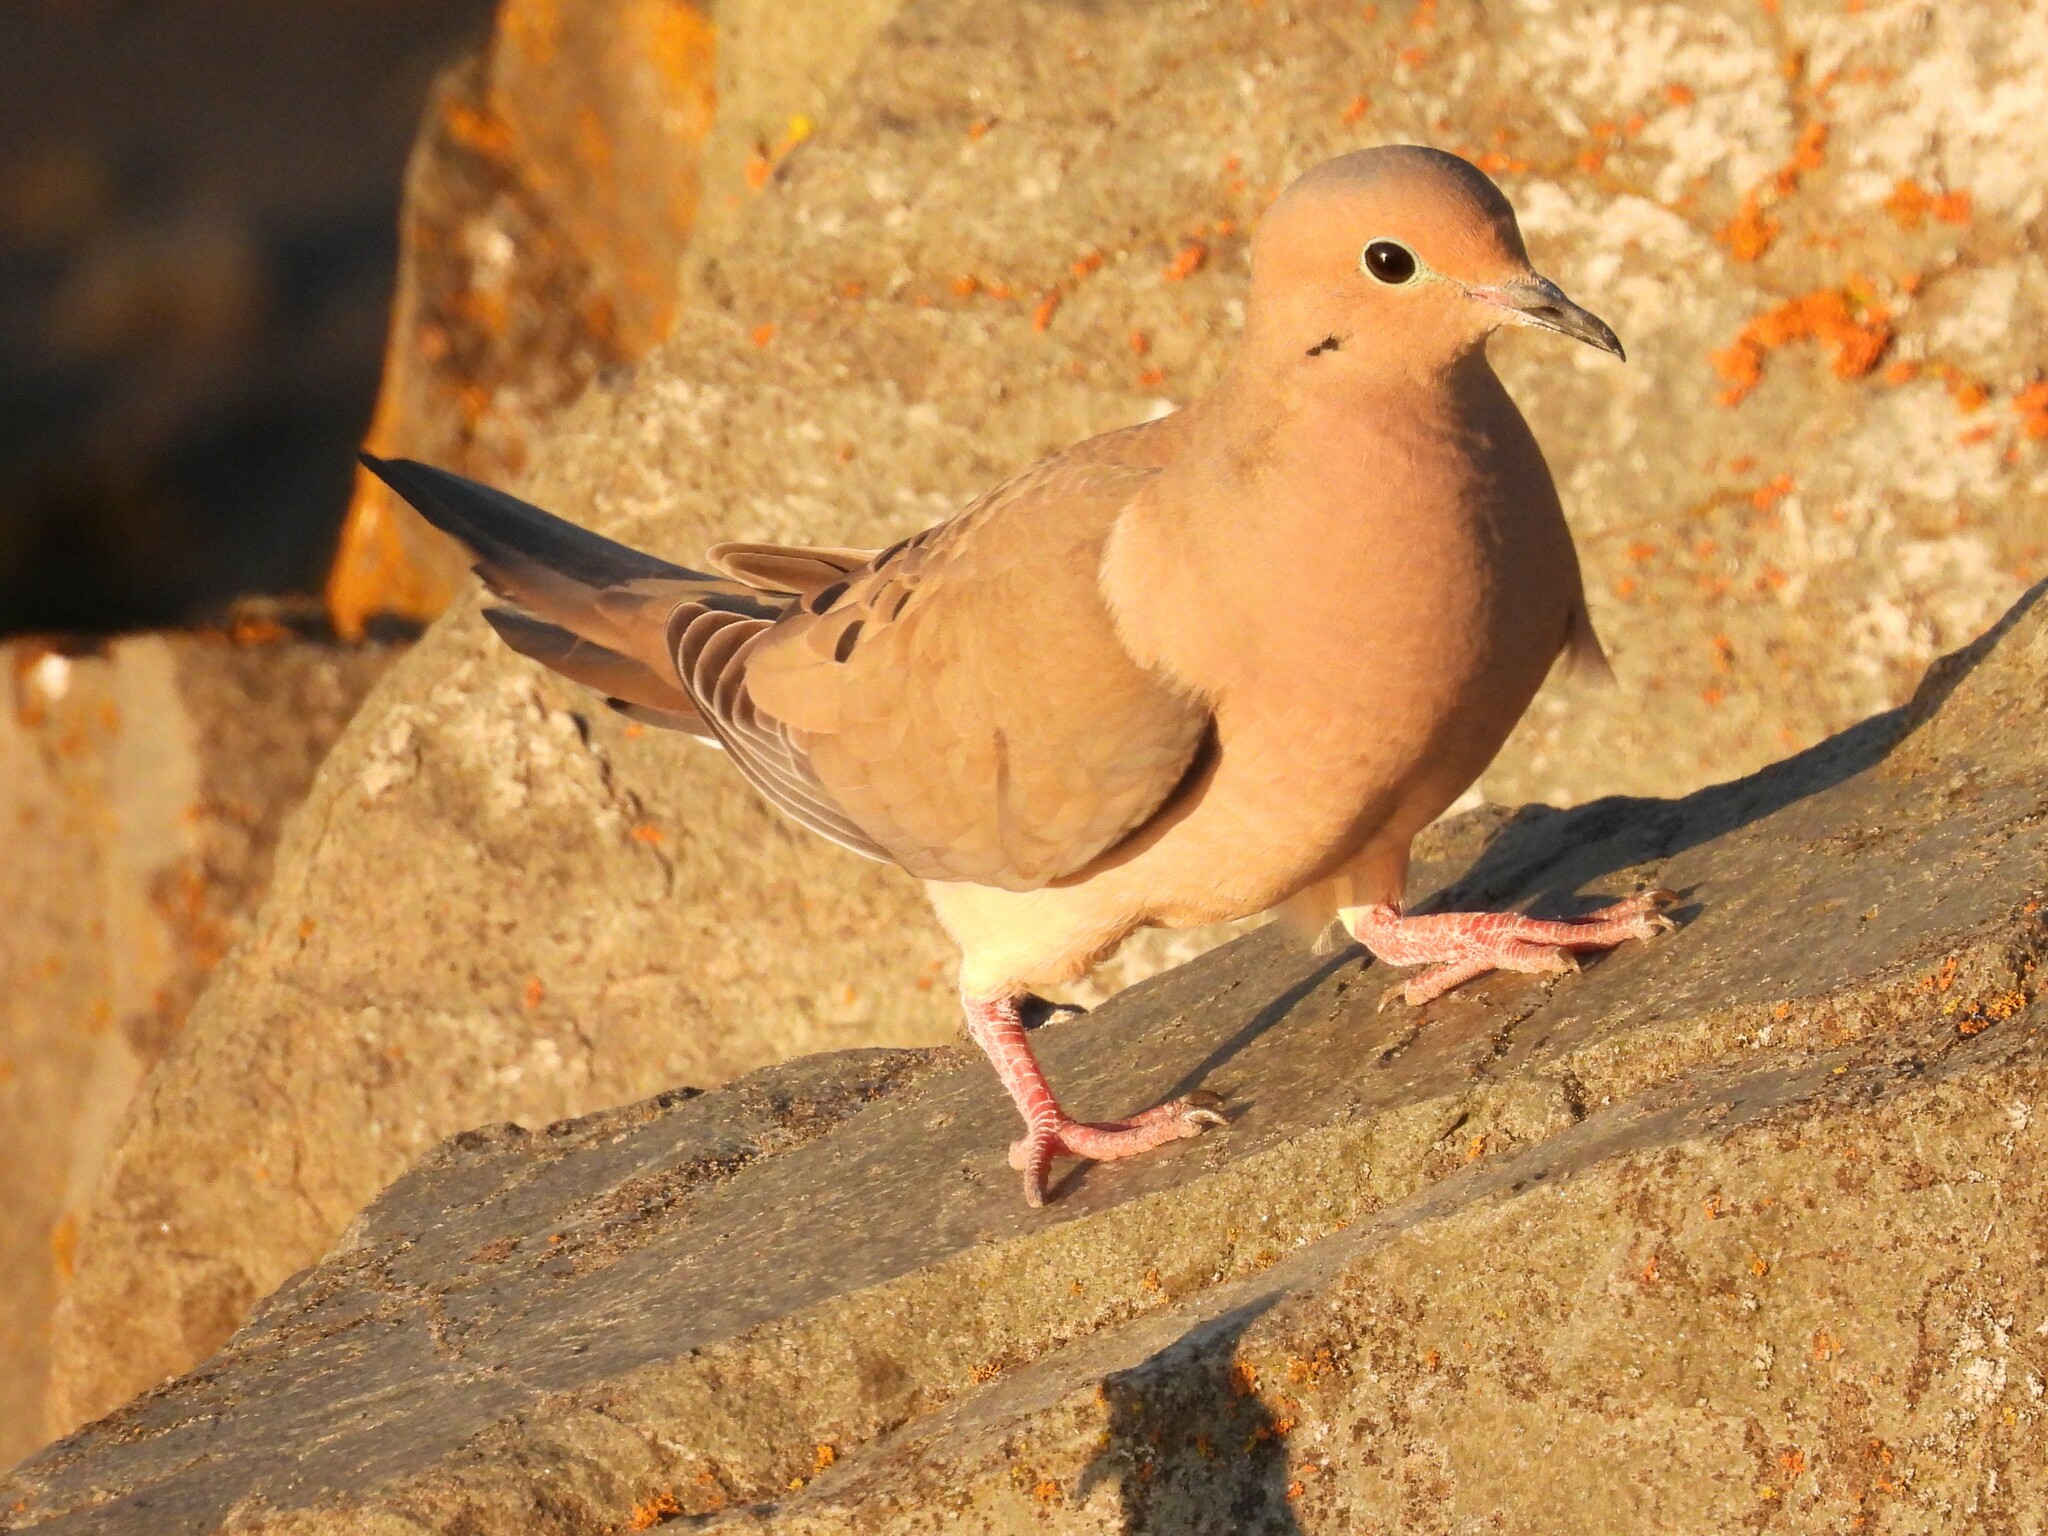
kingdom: Animalia
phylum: Chordata
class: Aves
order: Columbiformes
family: Columbidae
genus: Zenaida
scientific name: Zenaida macroura
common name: Mourning dove
